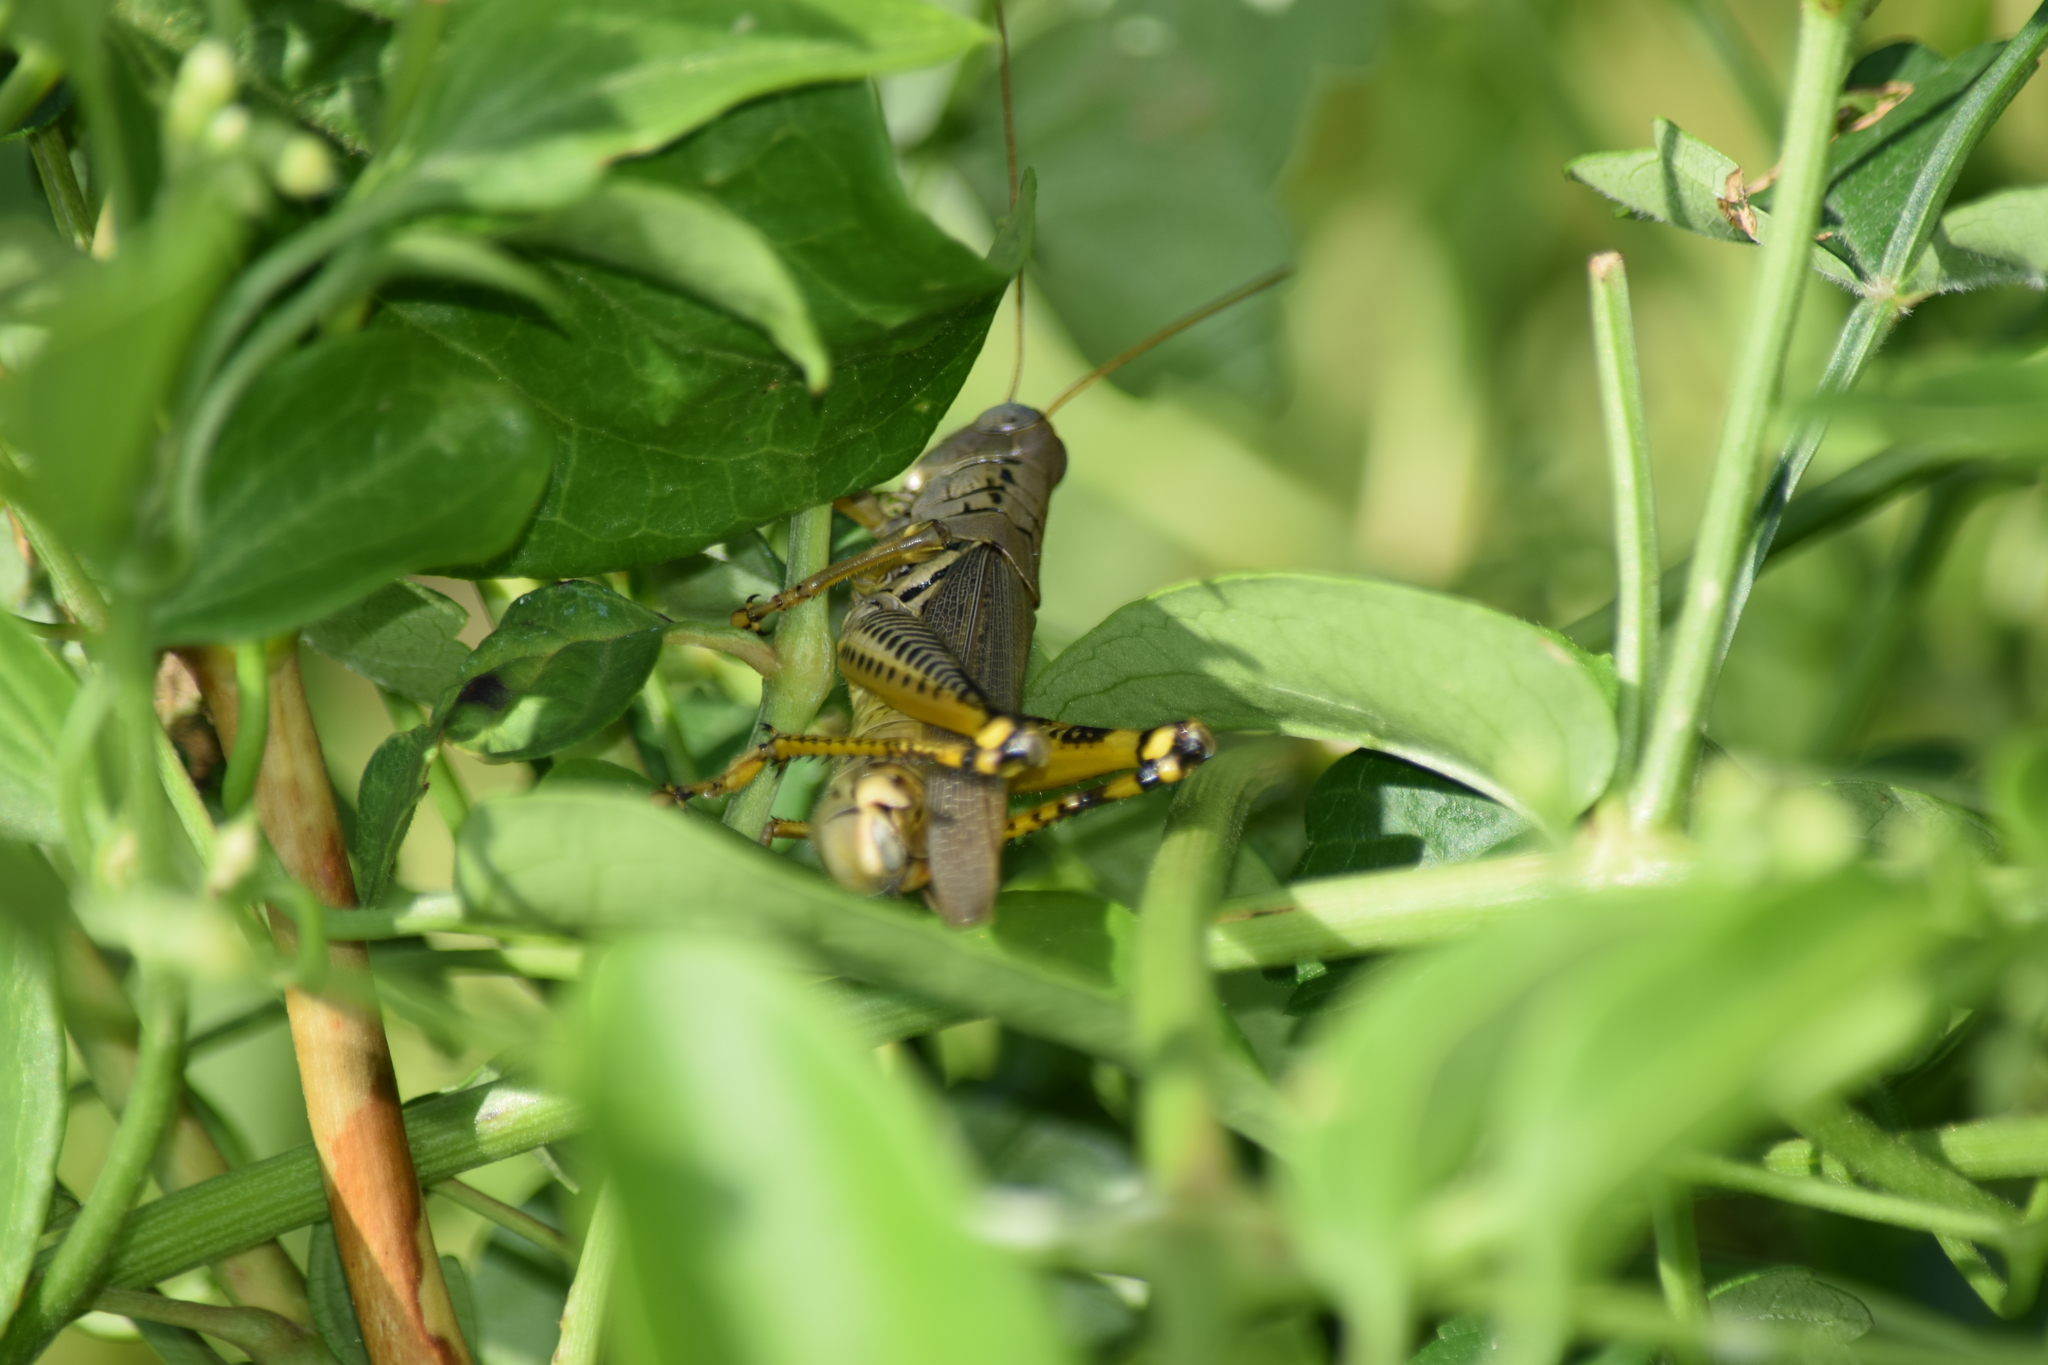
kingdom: Animalia
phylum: Arthropoda
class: Insecta
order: Orthoptera
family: Acrididae
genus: Melanoplus
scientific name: Melanoplus differentialis
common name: Differential grasshopper
